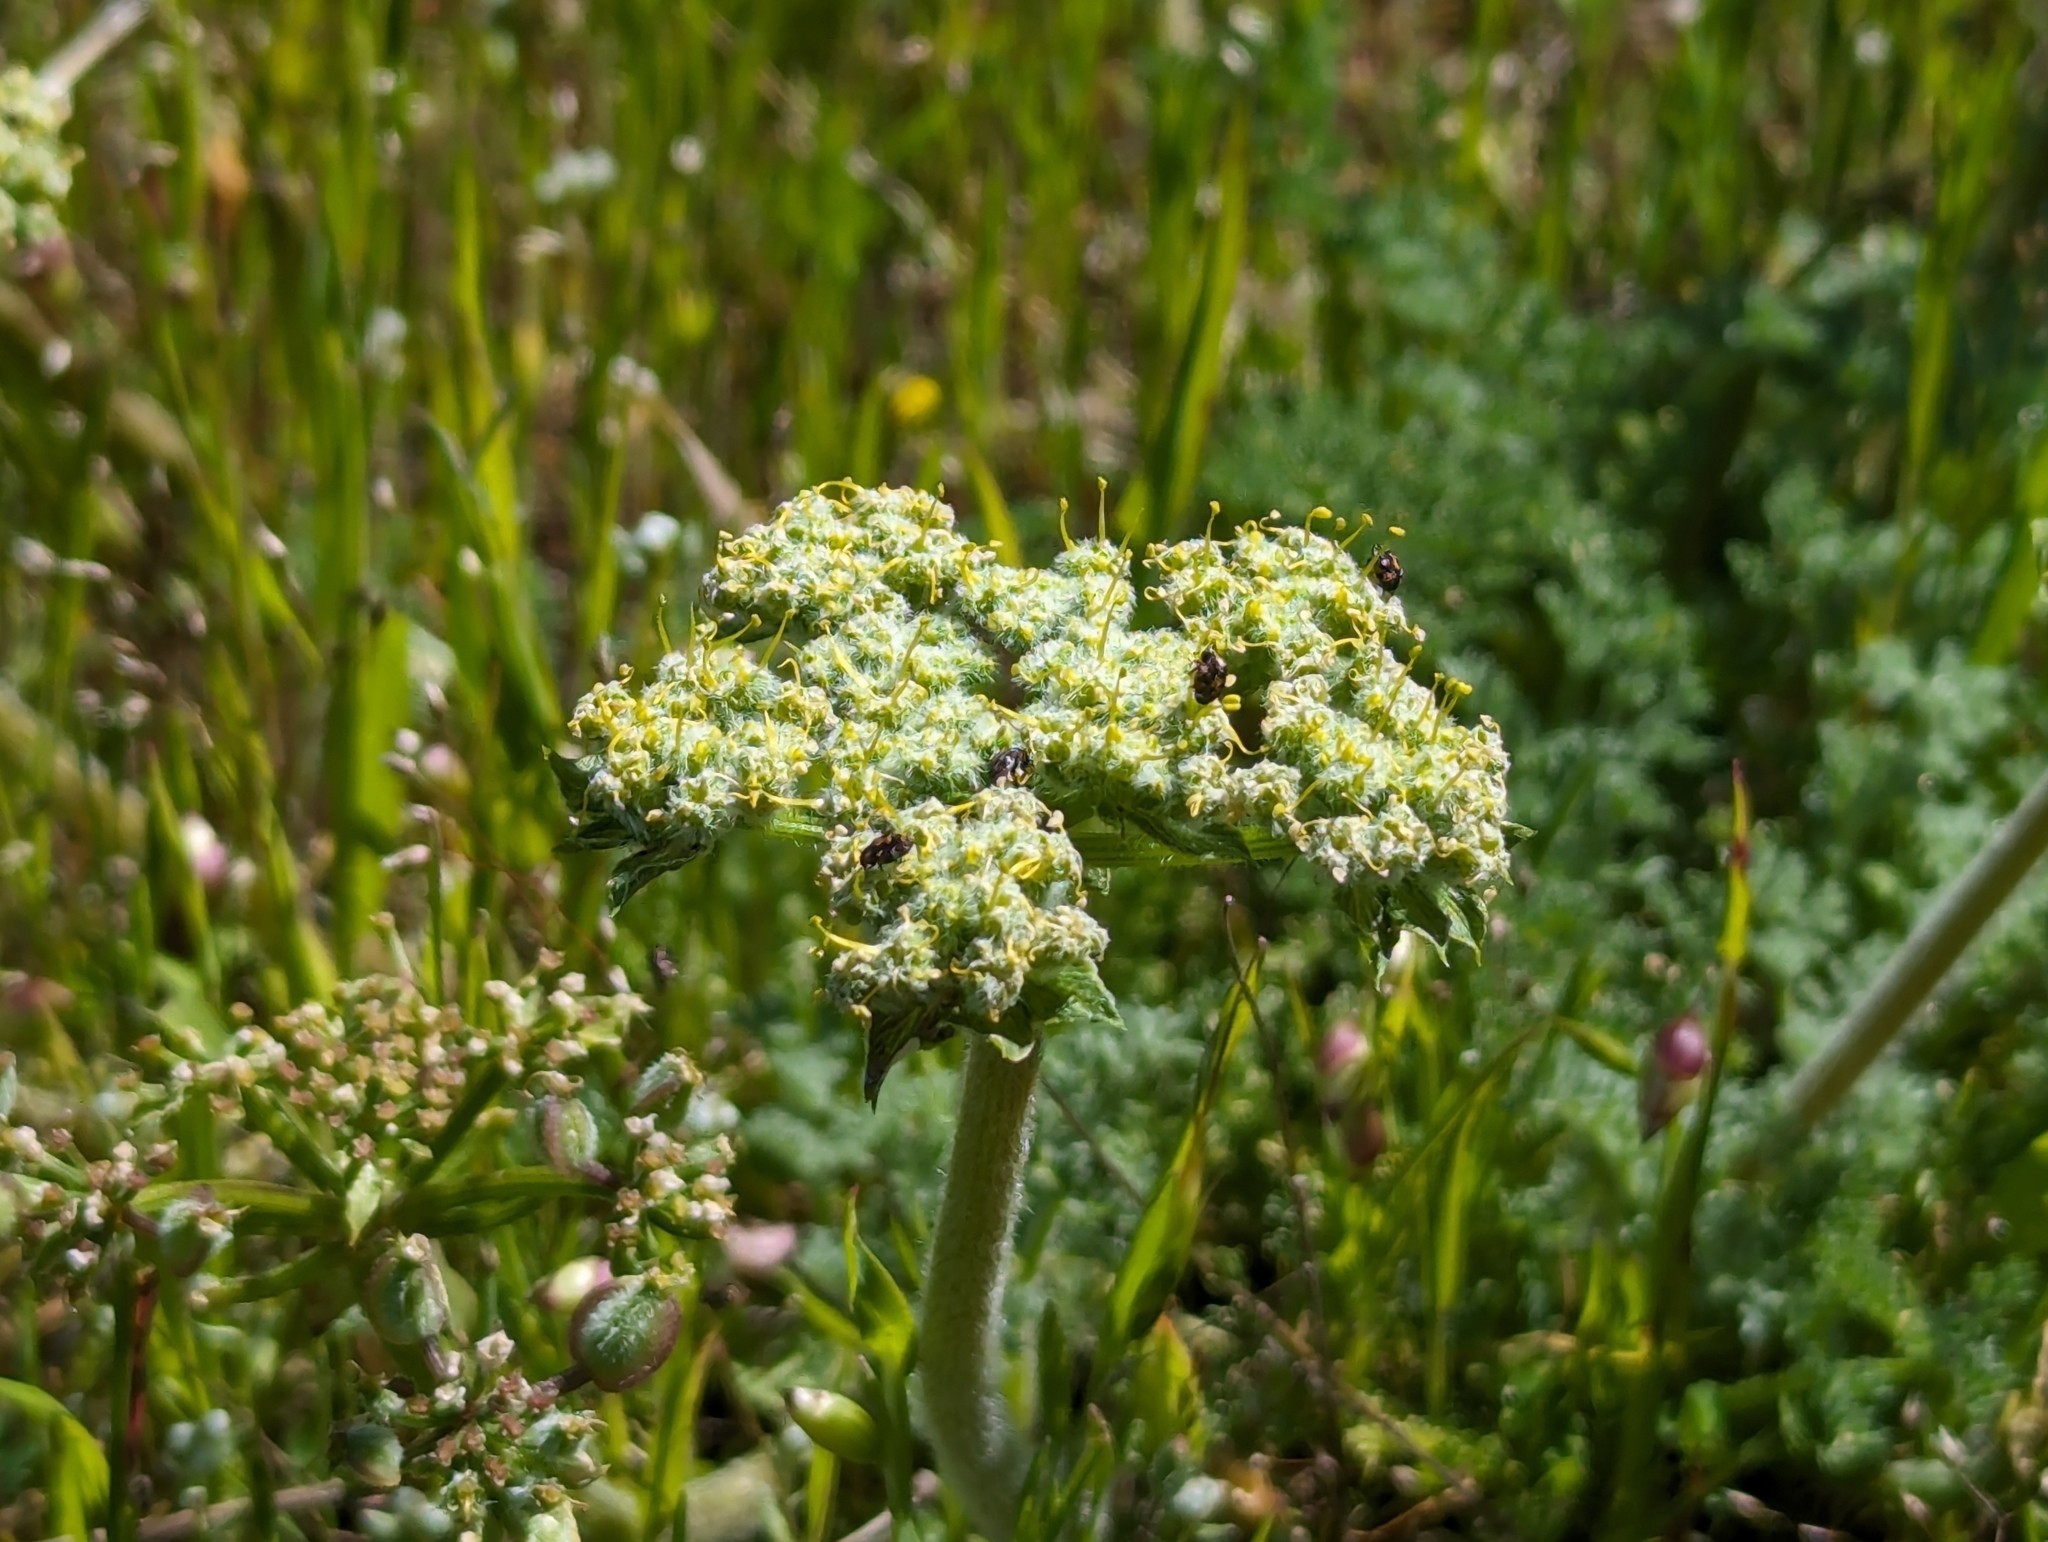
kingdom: Plantae
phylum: Tracheophyta
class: Magnoliopsida
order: Apiales
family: Apiaceae
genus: Lomatium
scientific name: Lomatium dasycarpum
